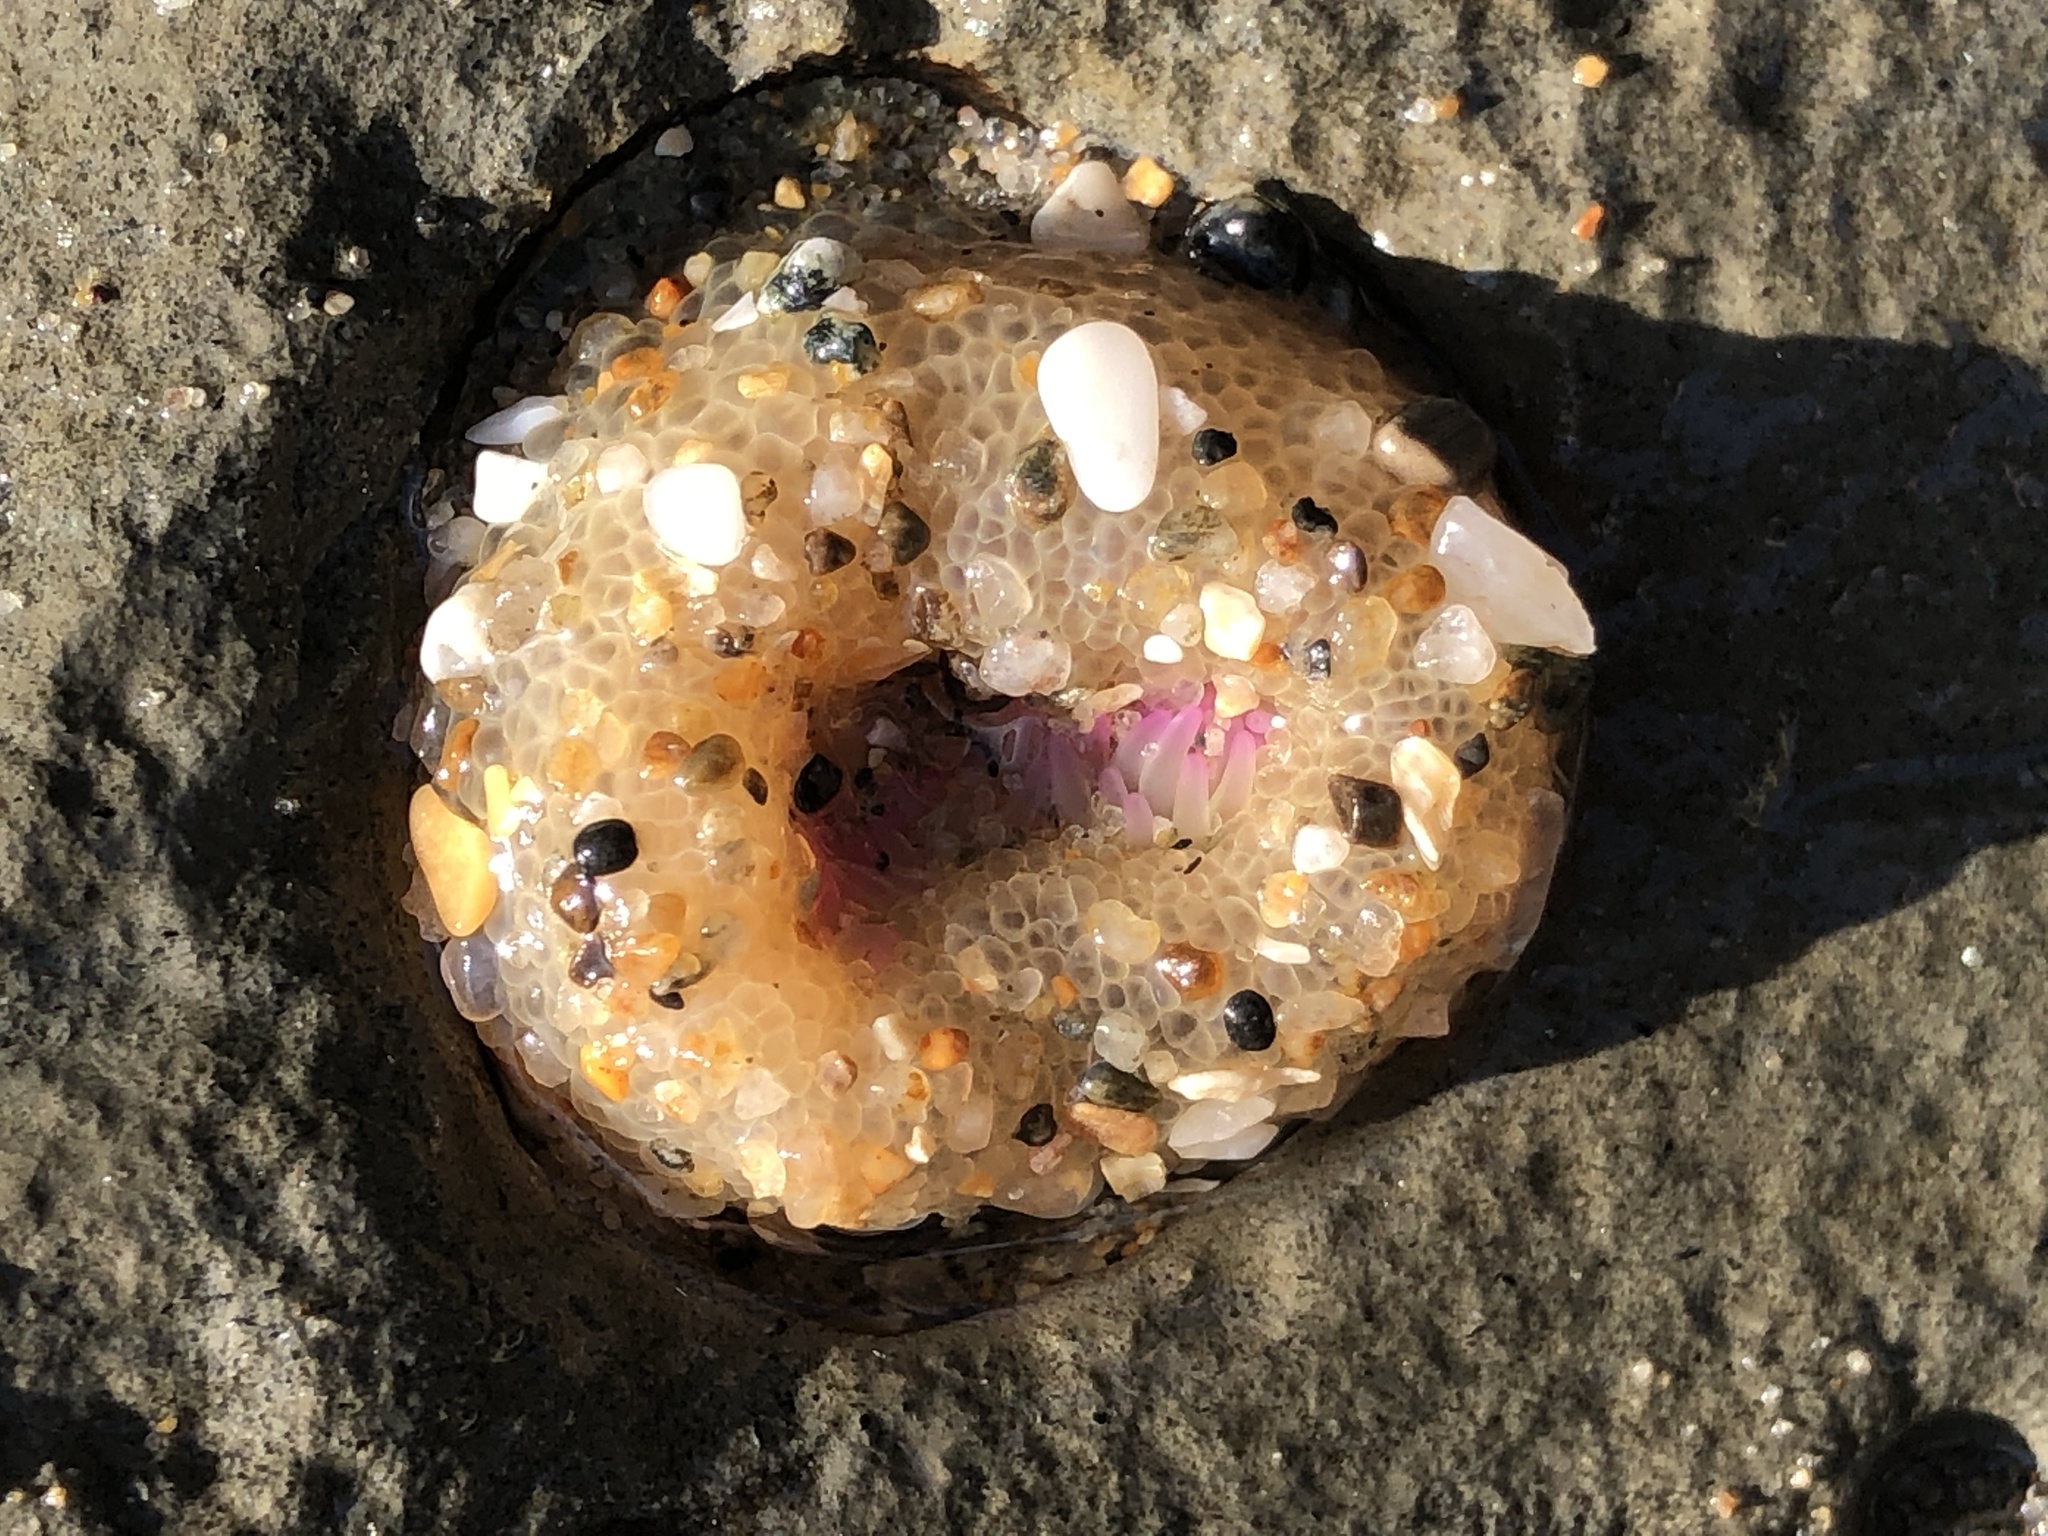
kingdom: Animalia
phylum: Cnidaria
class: Anthozoa
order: Actiniaria
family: Actiniidae
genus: Anthopleura
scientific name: Anthopleura elegantissima
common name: Clonal anemone
